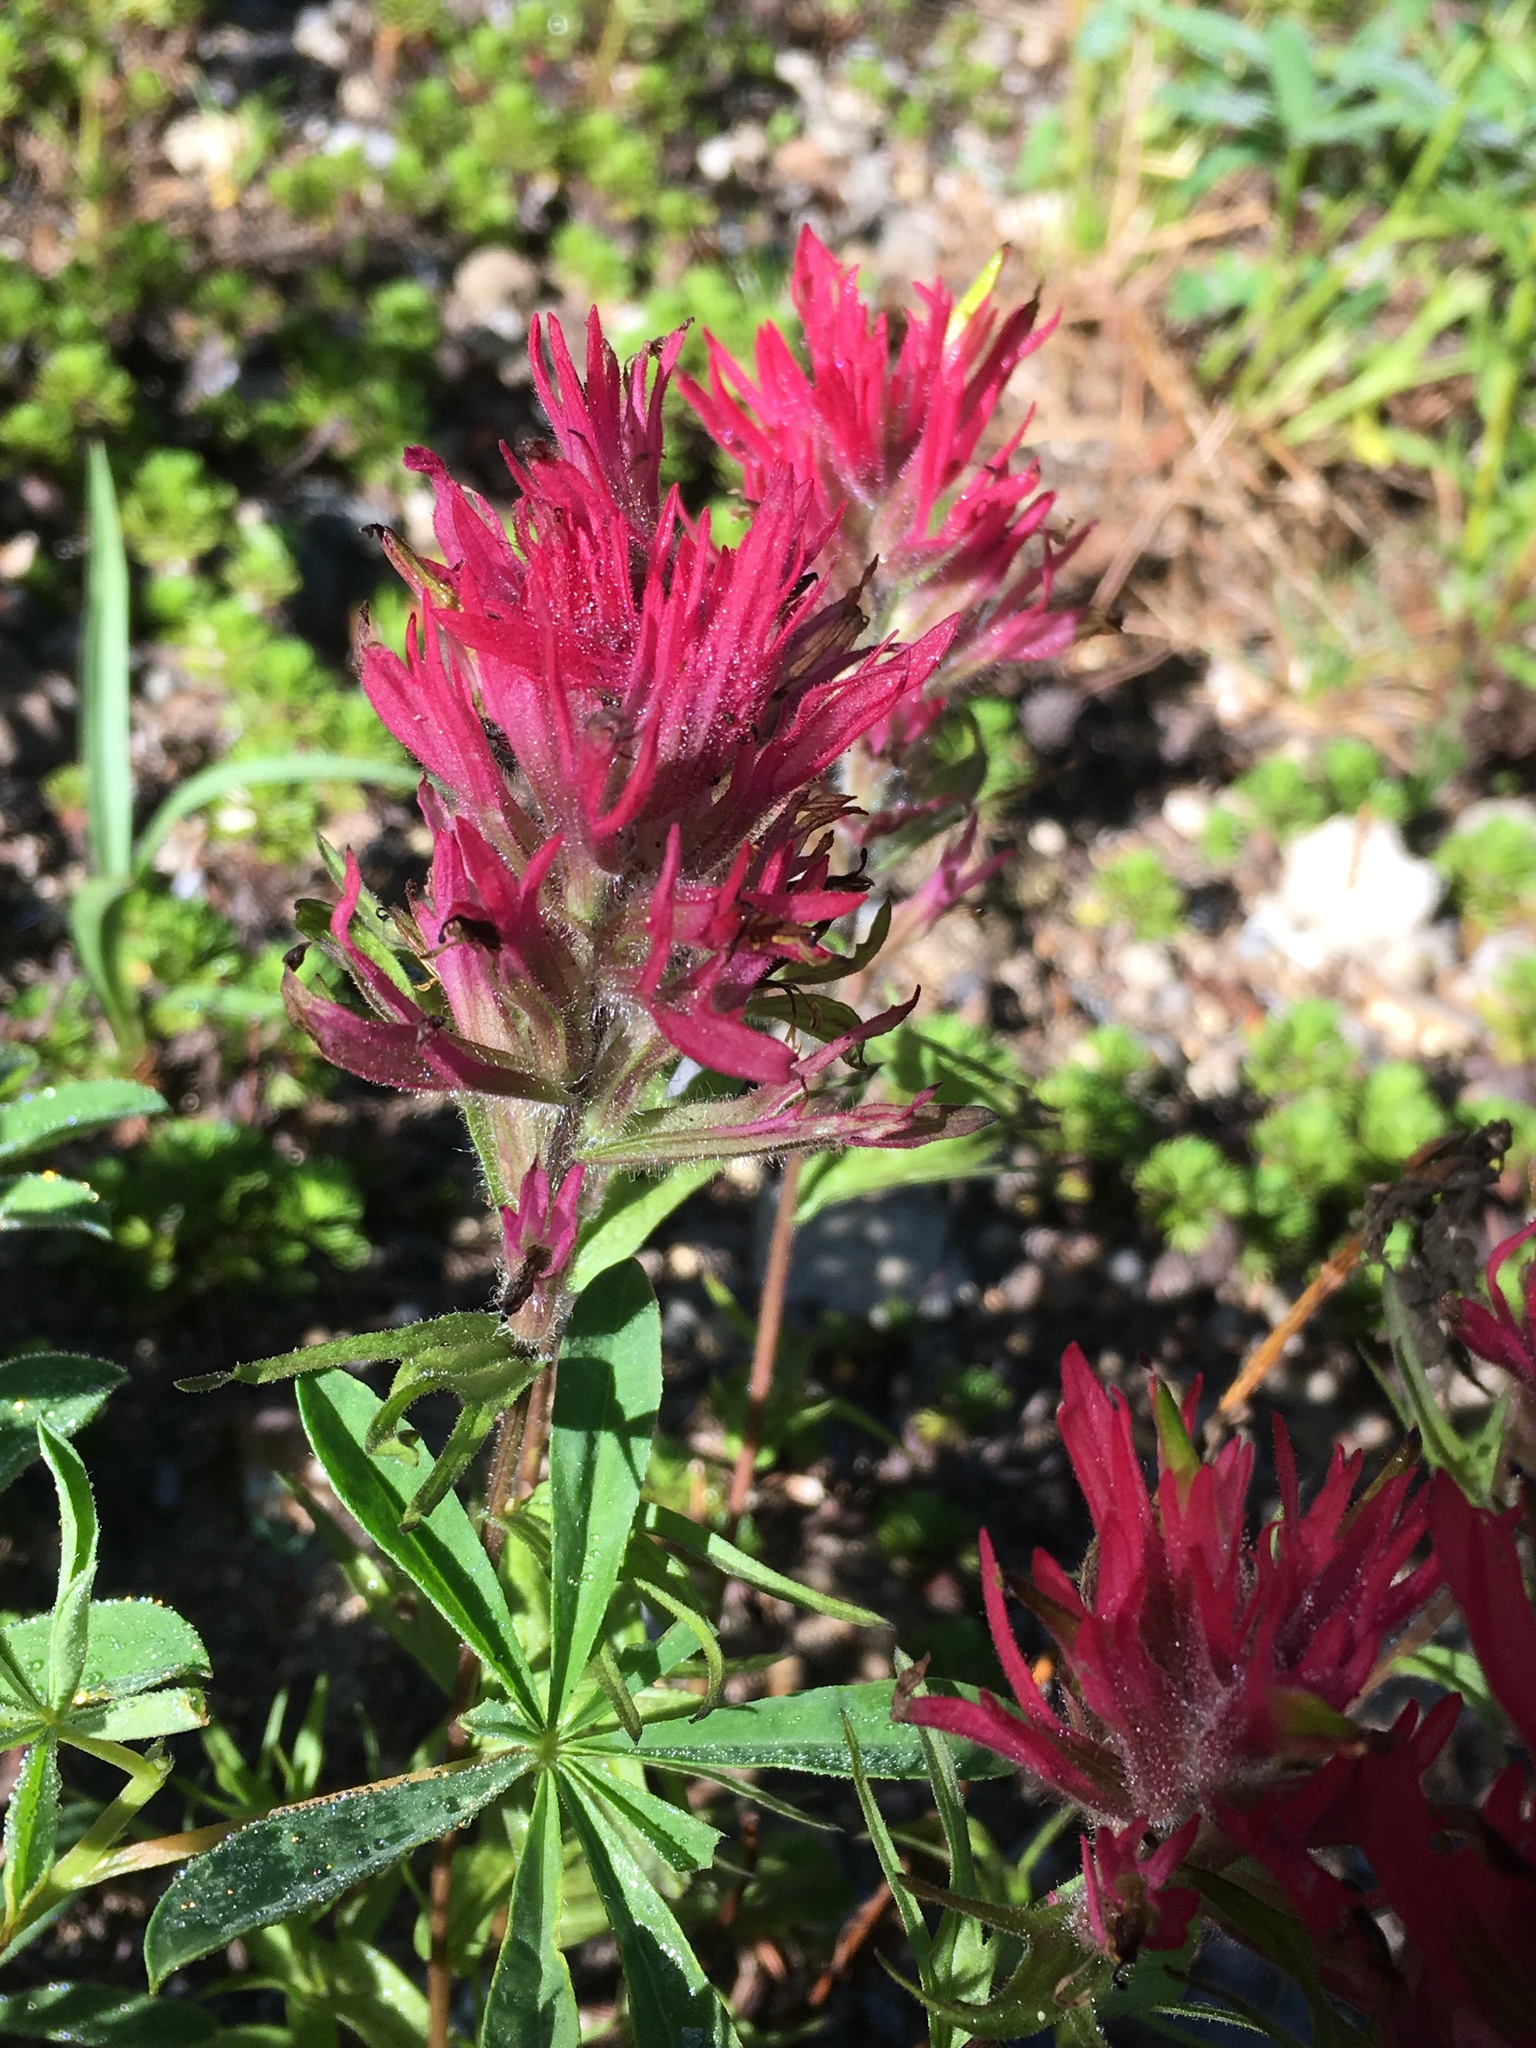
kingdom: Plantae
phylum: Tracheophyta
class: Magnoliopsida
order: Lamiales
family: Orobanchaceae
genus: Castilleja
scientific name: Castilleja parviflora
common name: Mountain paintbrush
